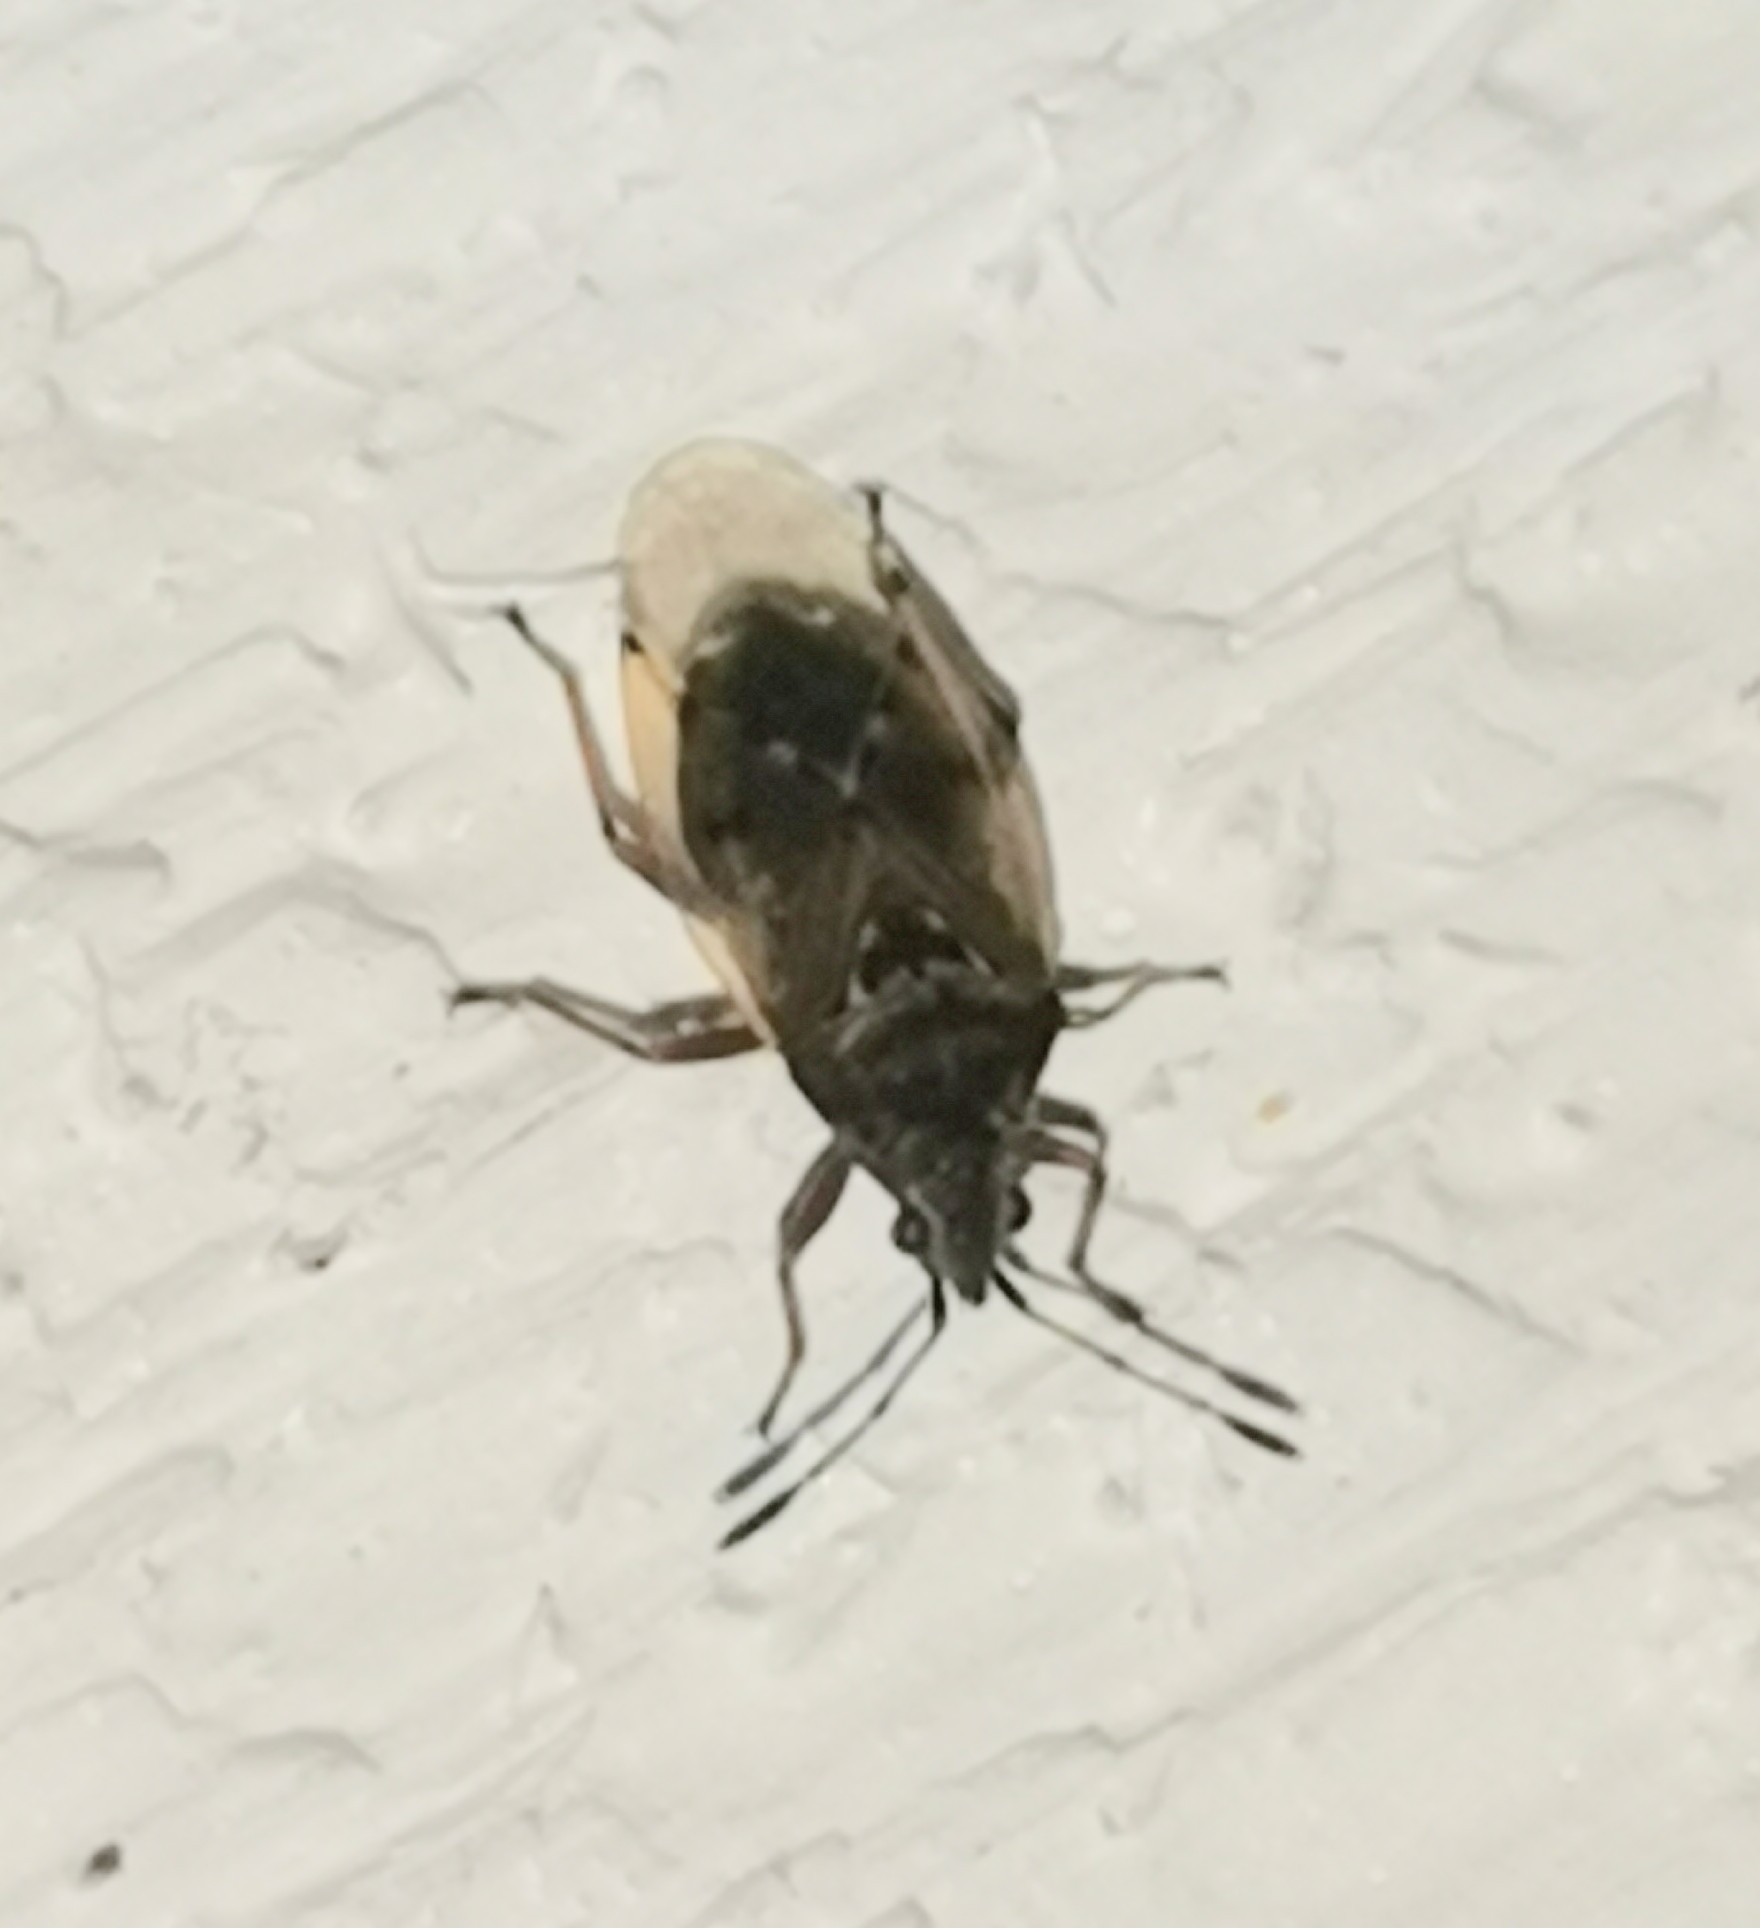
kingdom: Animalia
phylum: Arthropoda
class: Insecta
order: Hemiptera
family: Lygaeidae
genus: Kleidocerys
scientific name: Kleidocerys resedae
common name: Birch catkin bug
